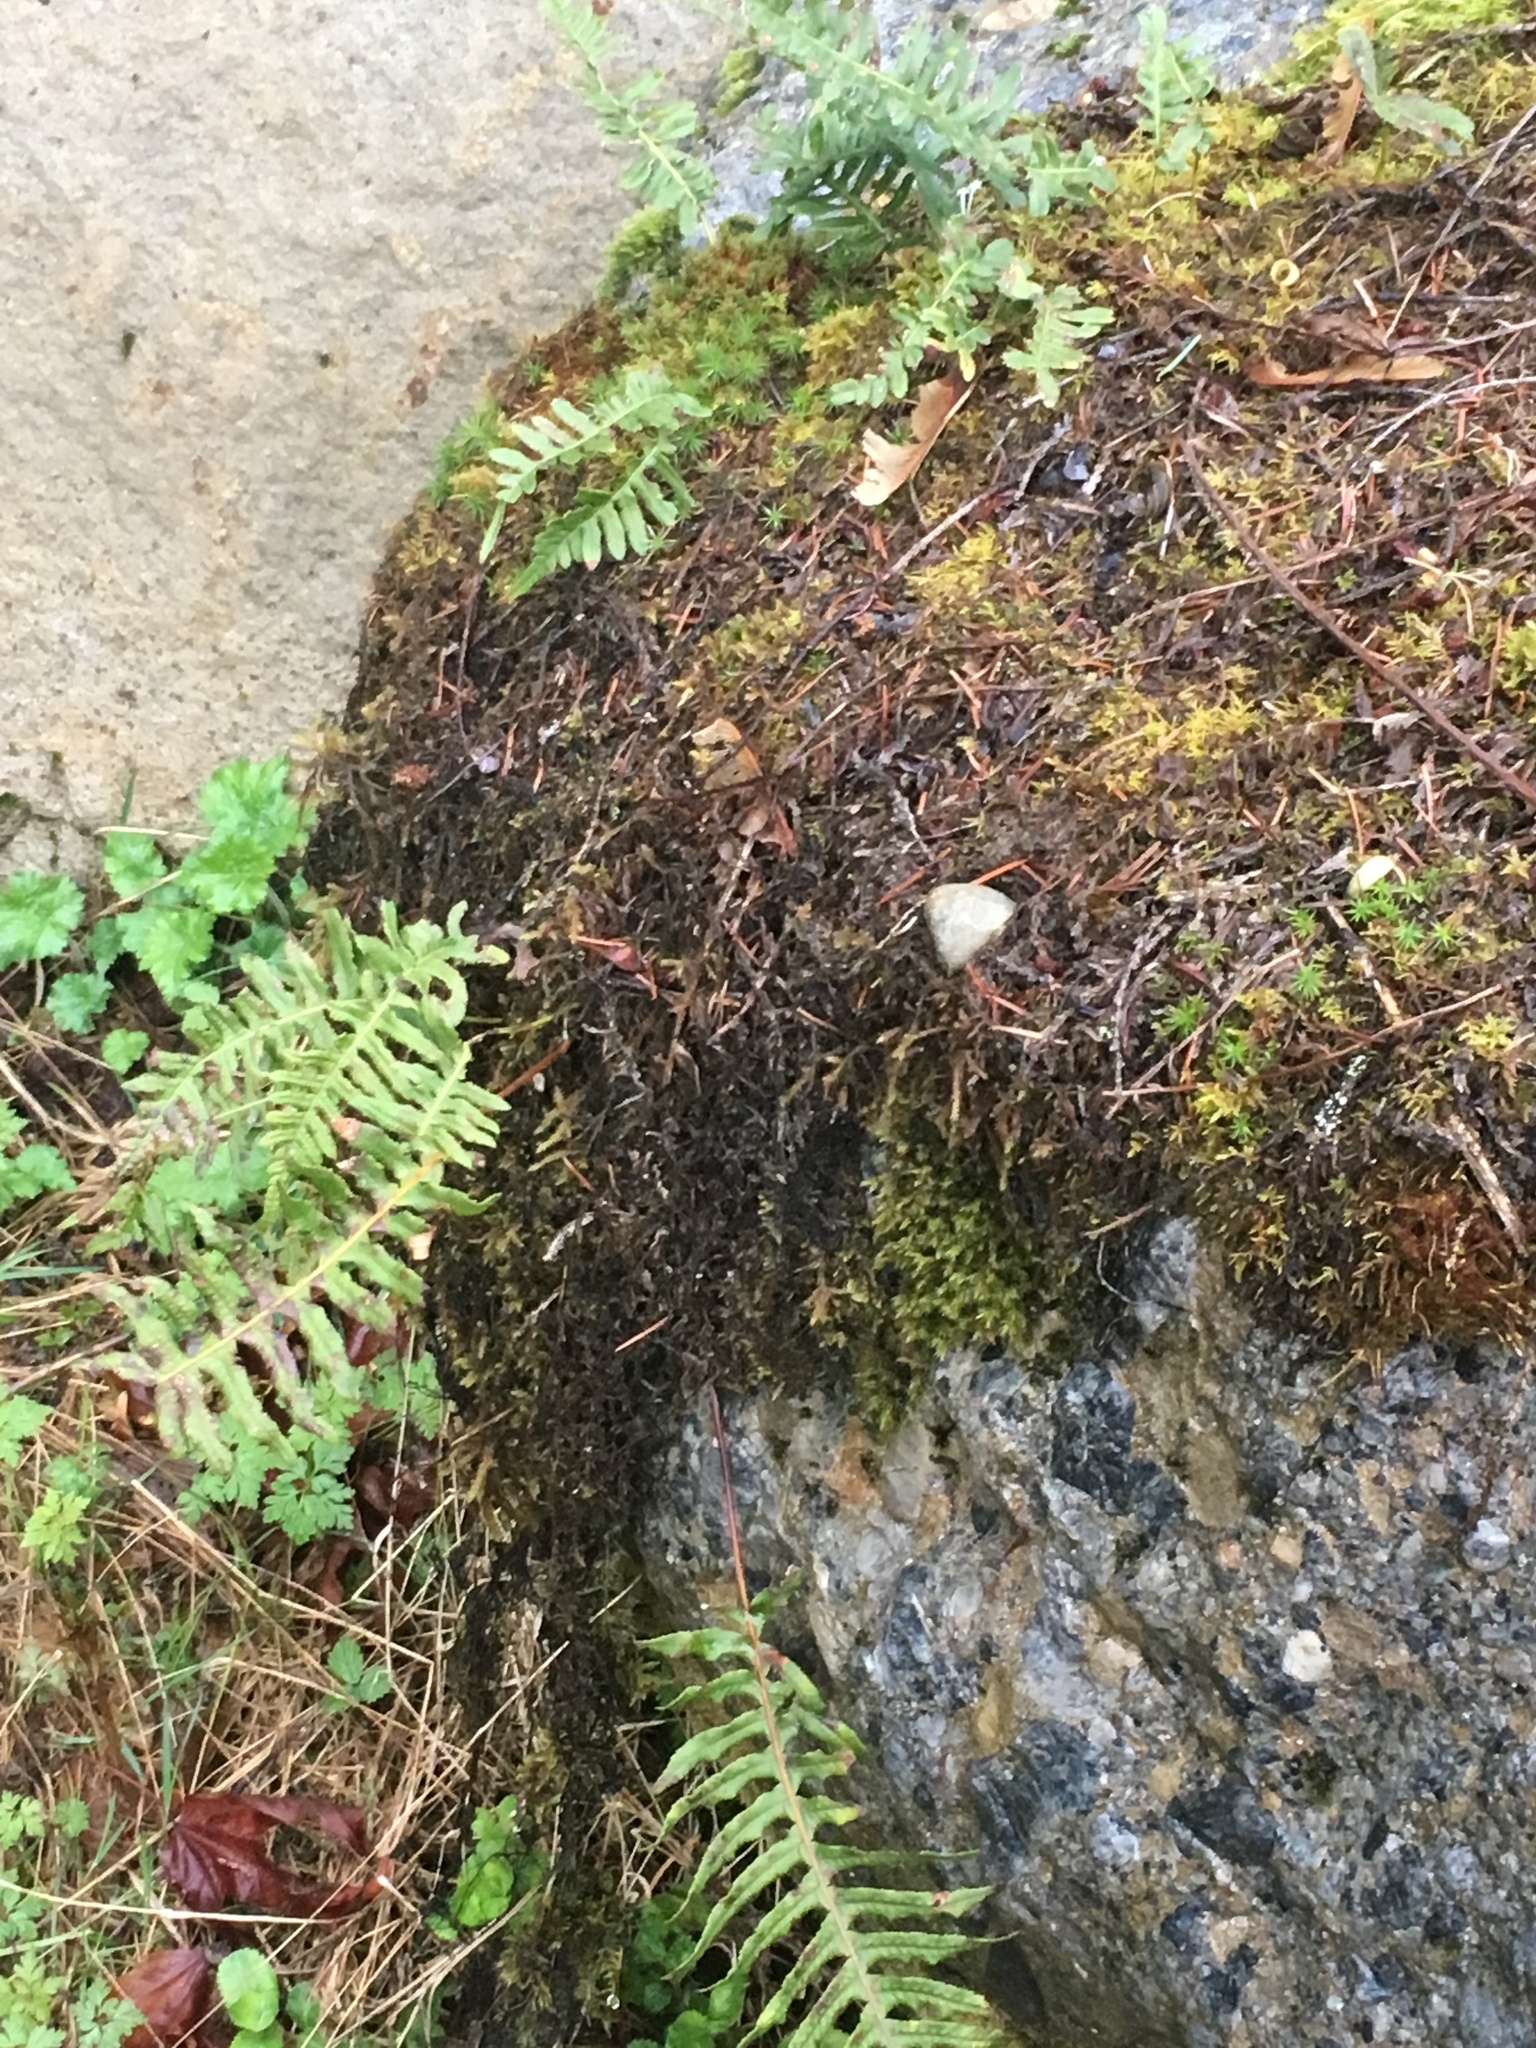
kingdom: Plantae
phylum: Tracheophyta
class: Polypodiopsida
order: Polypodiales
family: Polypodiaceae
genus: Polypodium
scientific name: Polypodium glycyrrhiza
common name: Licorice fern
